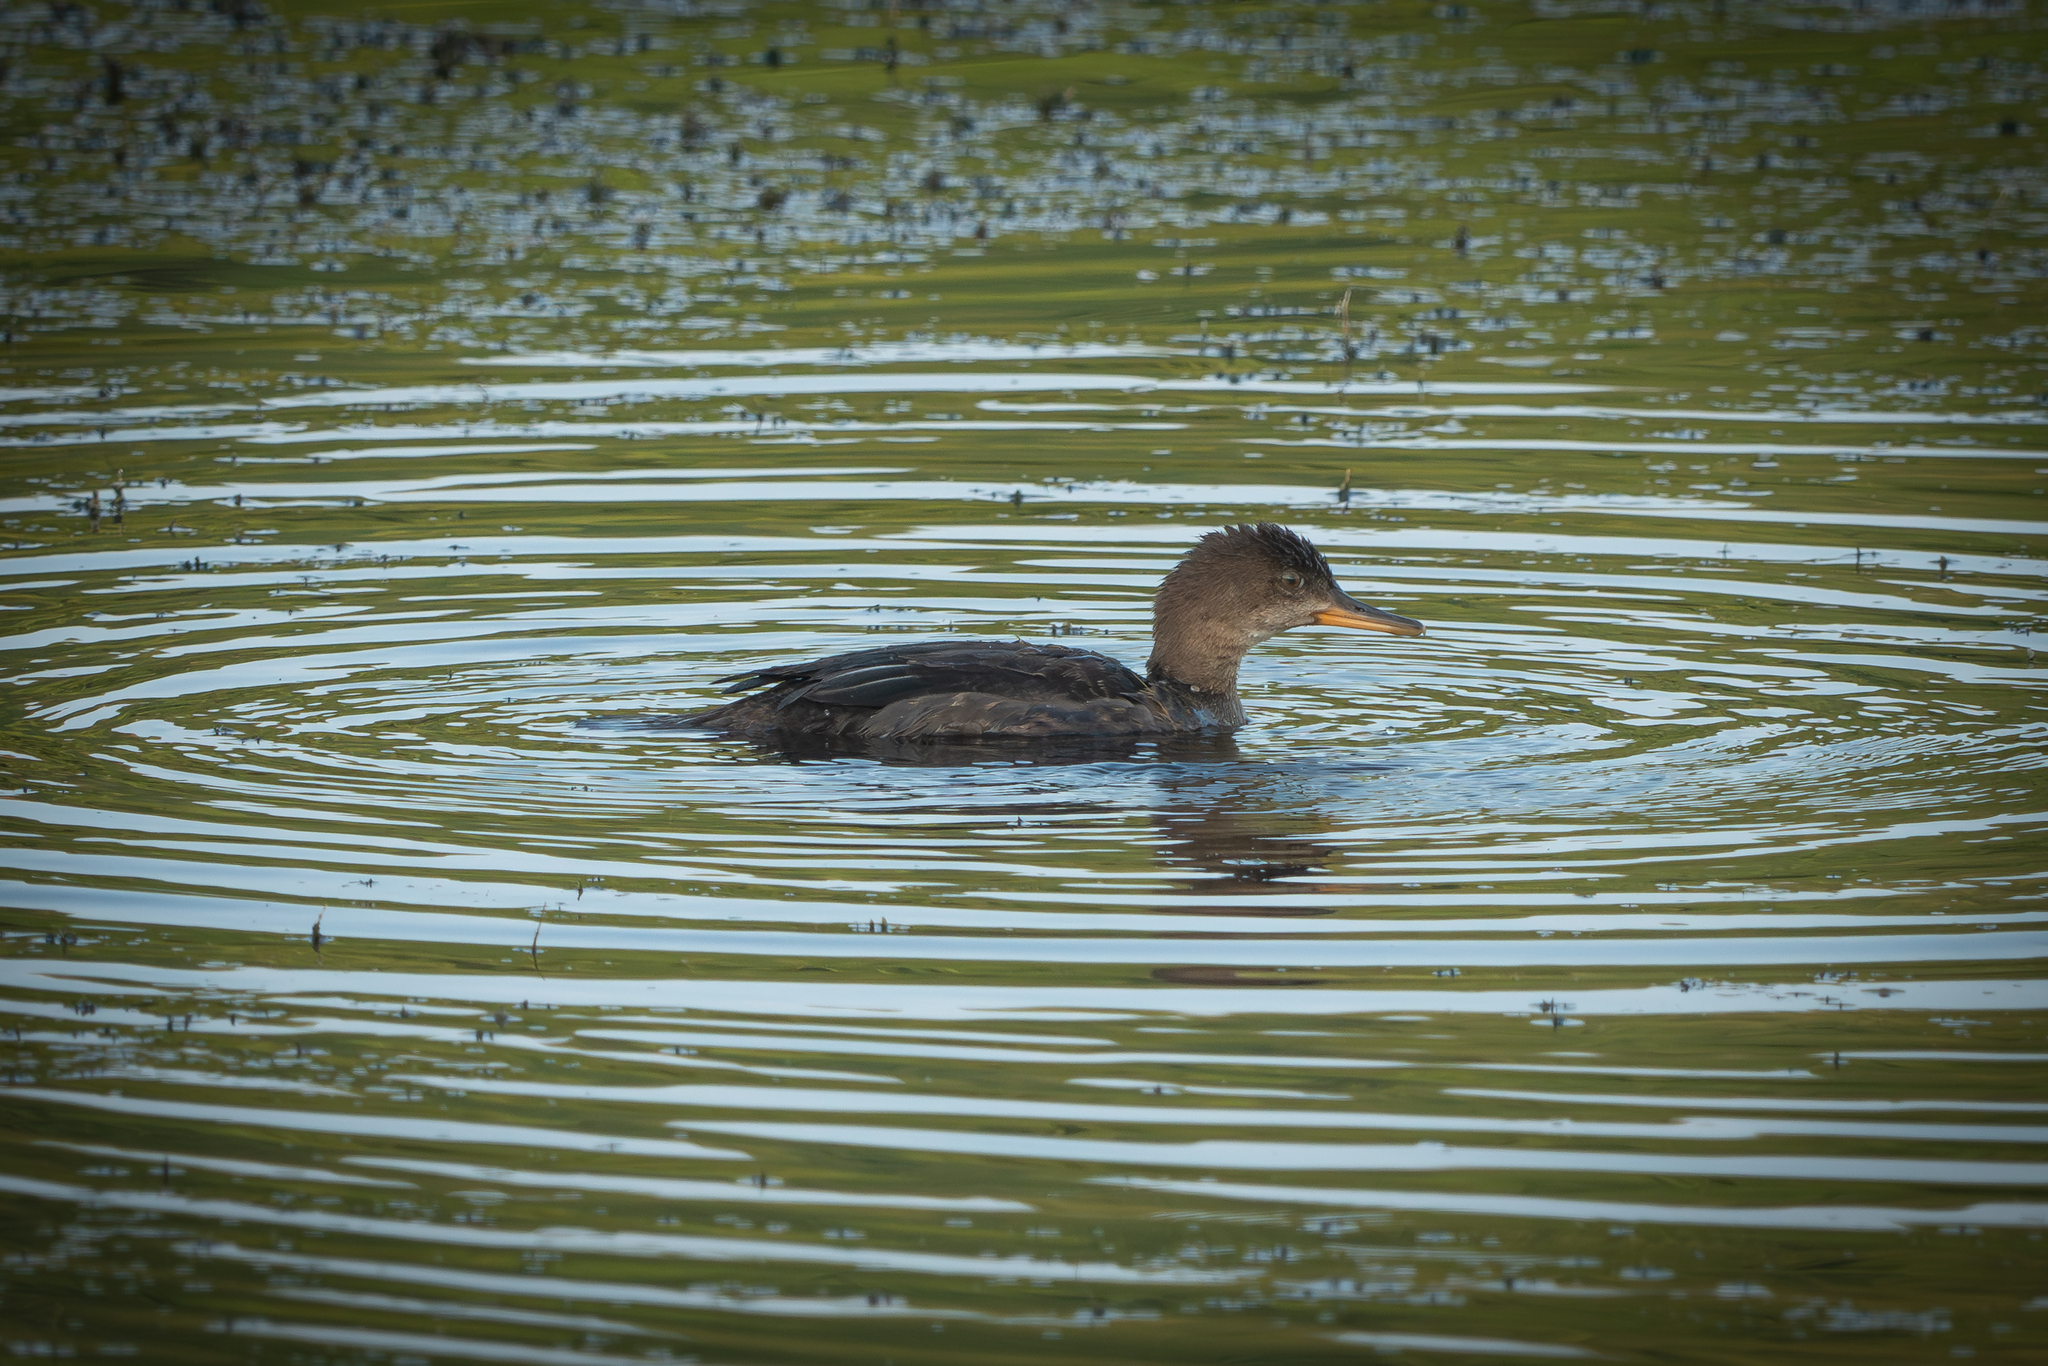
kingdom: Animalia
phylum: Chordata
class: Aves
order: Anseriformes
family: Anatidae
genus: Lophodytes
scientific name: Lophodytes cucullatus
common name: Hooded merganser
